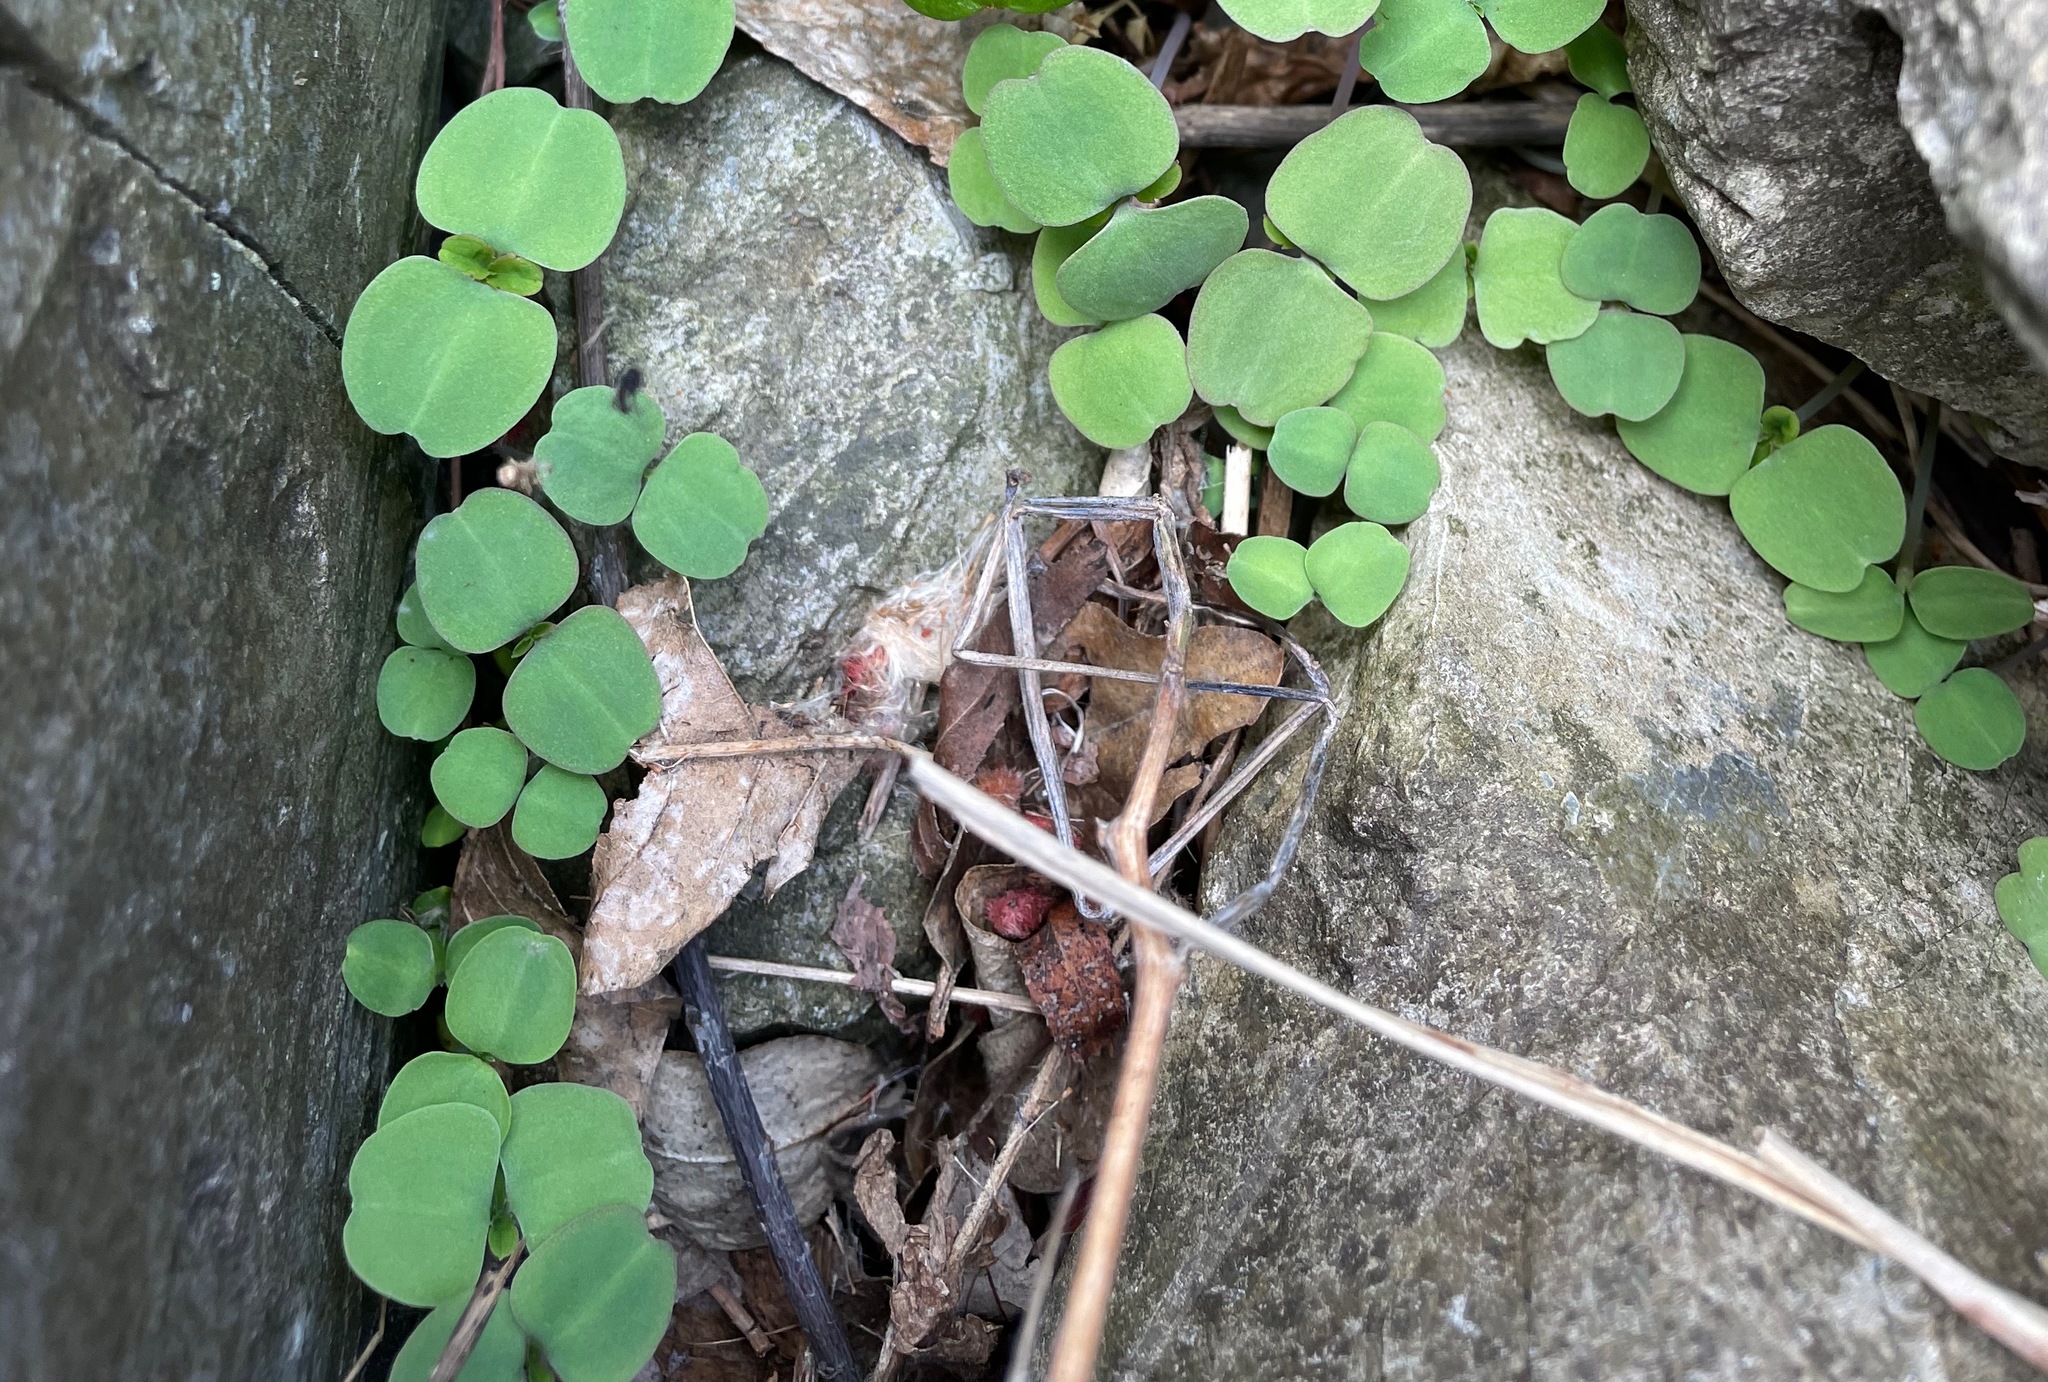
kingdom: Plantae
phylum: Tracheophyta
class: Magnoliopsida
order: Ericales
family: Balsaminaceae
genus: Impatiens
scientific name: Impatiens
